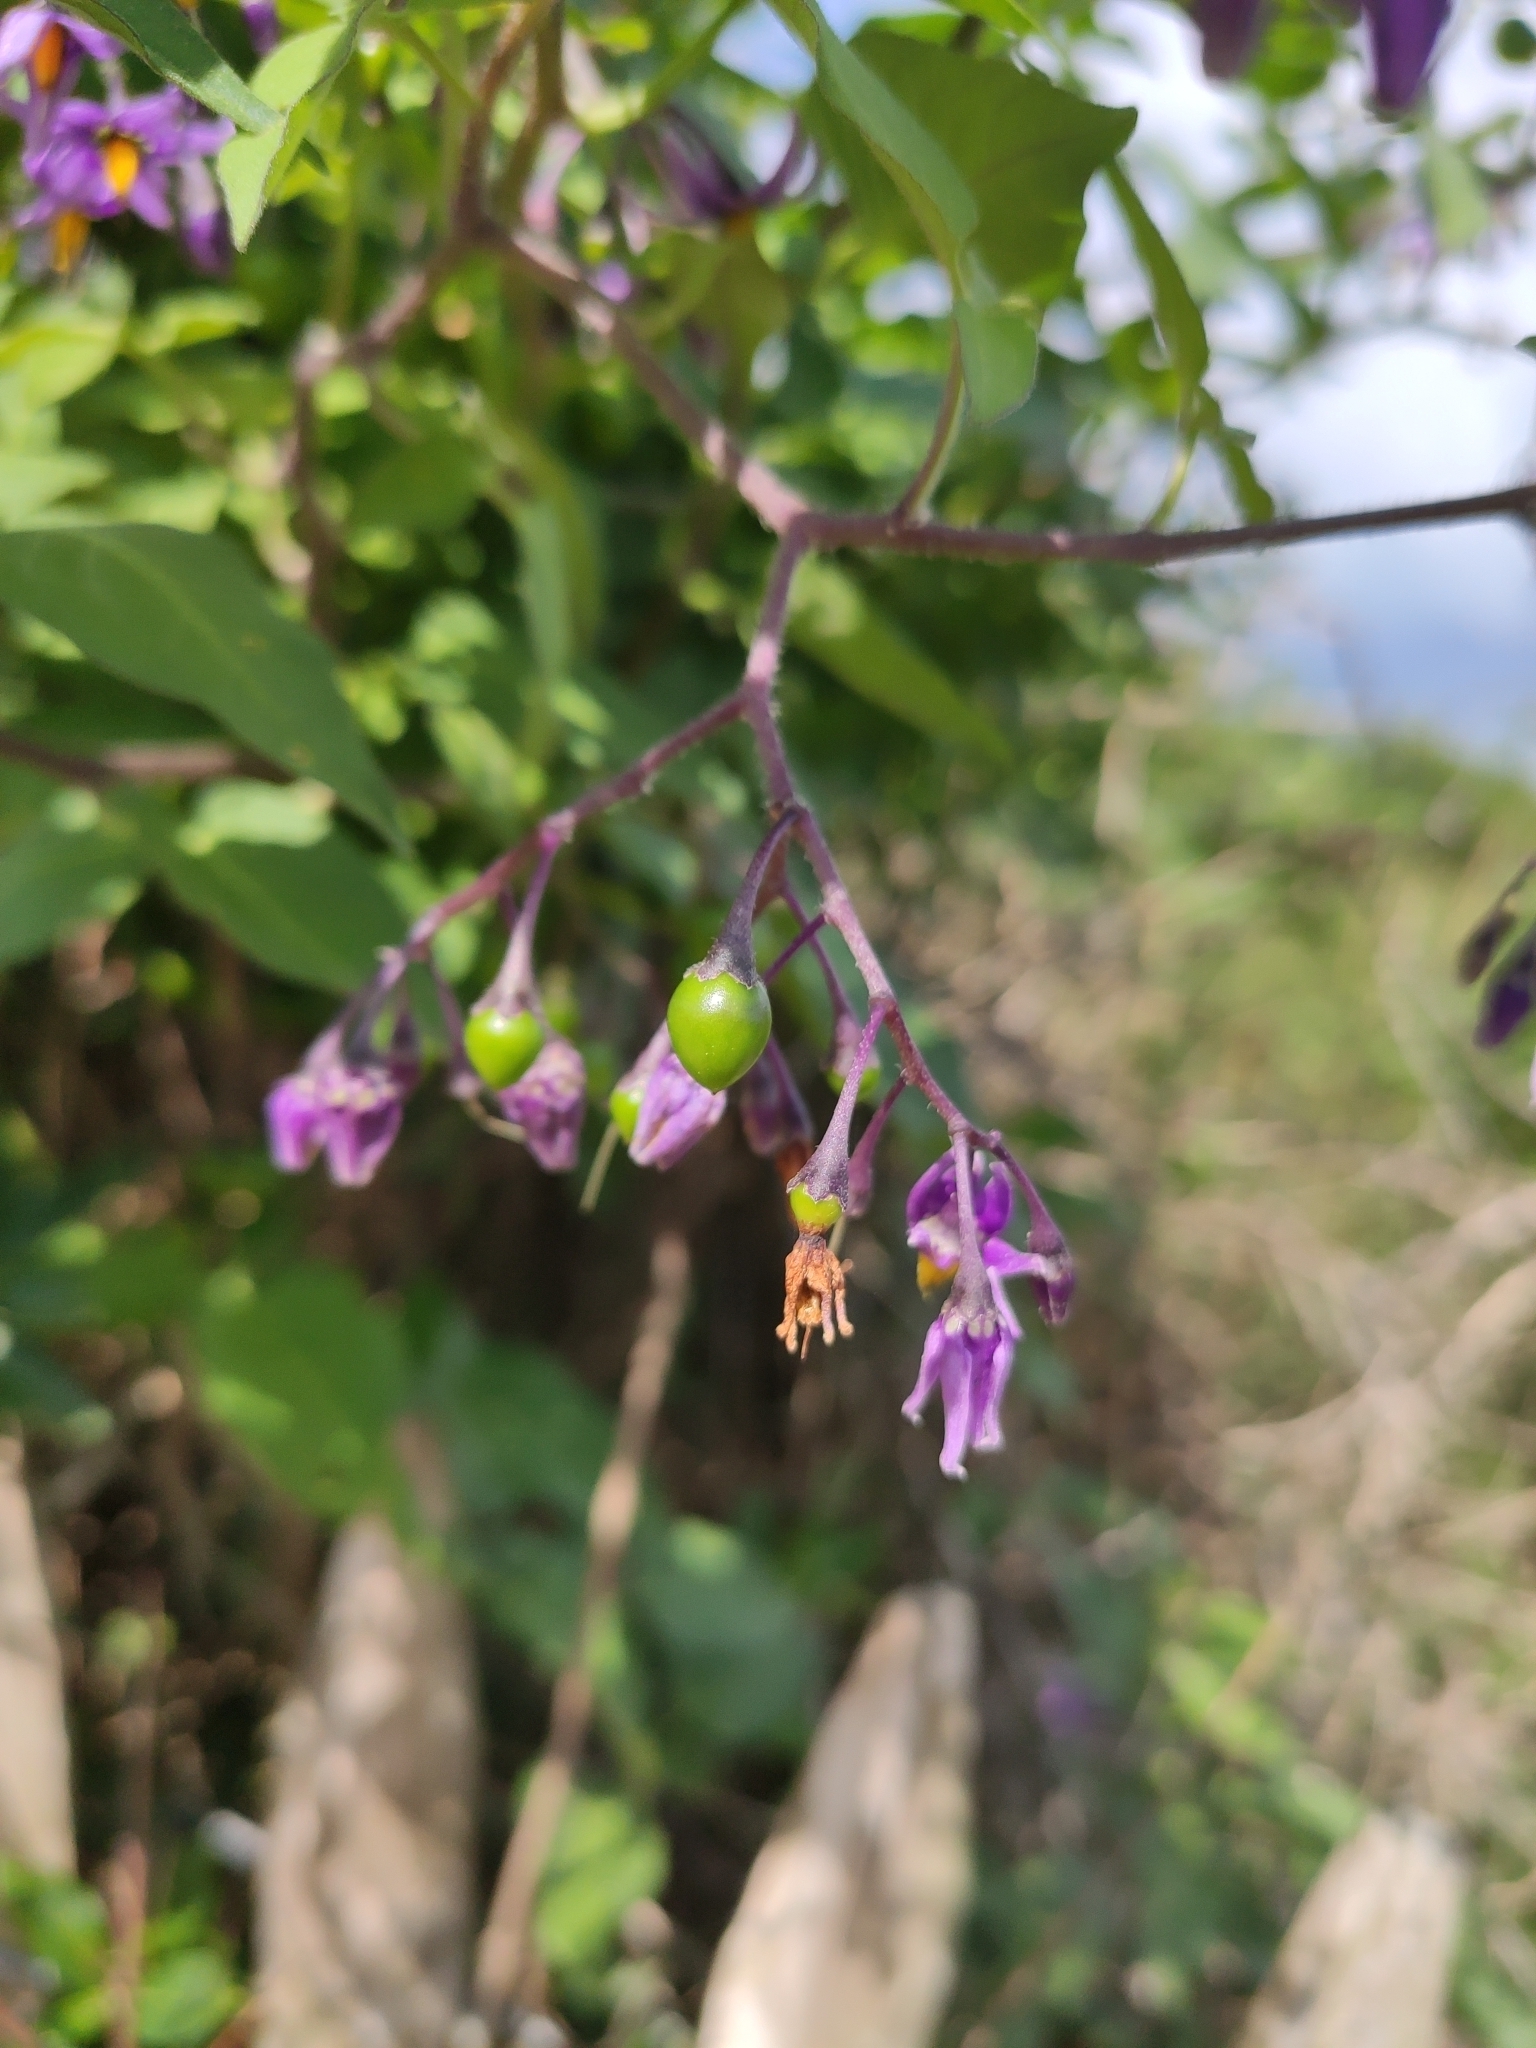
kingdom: Plantae
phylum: Tracheophyta
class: Magnoliopsida
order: Solanales
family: Solanaceae
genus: Solanum
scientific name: Solanum dulcamara
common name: Climbing nightshade
